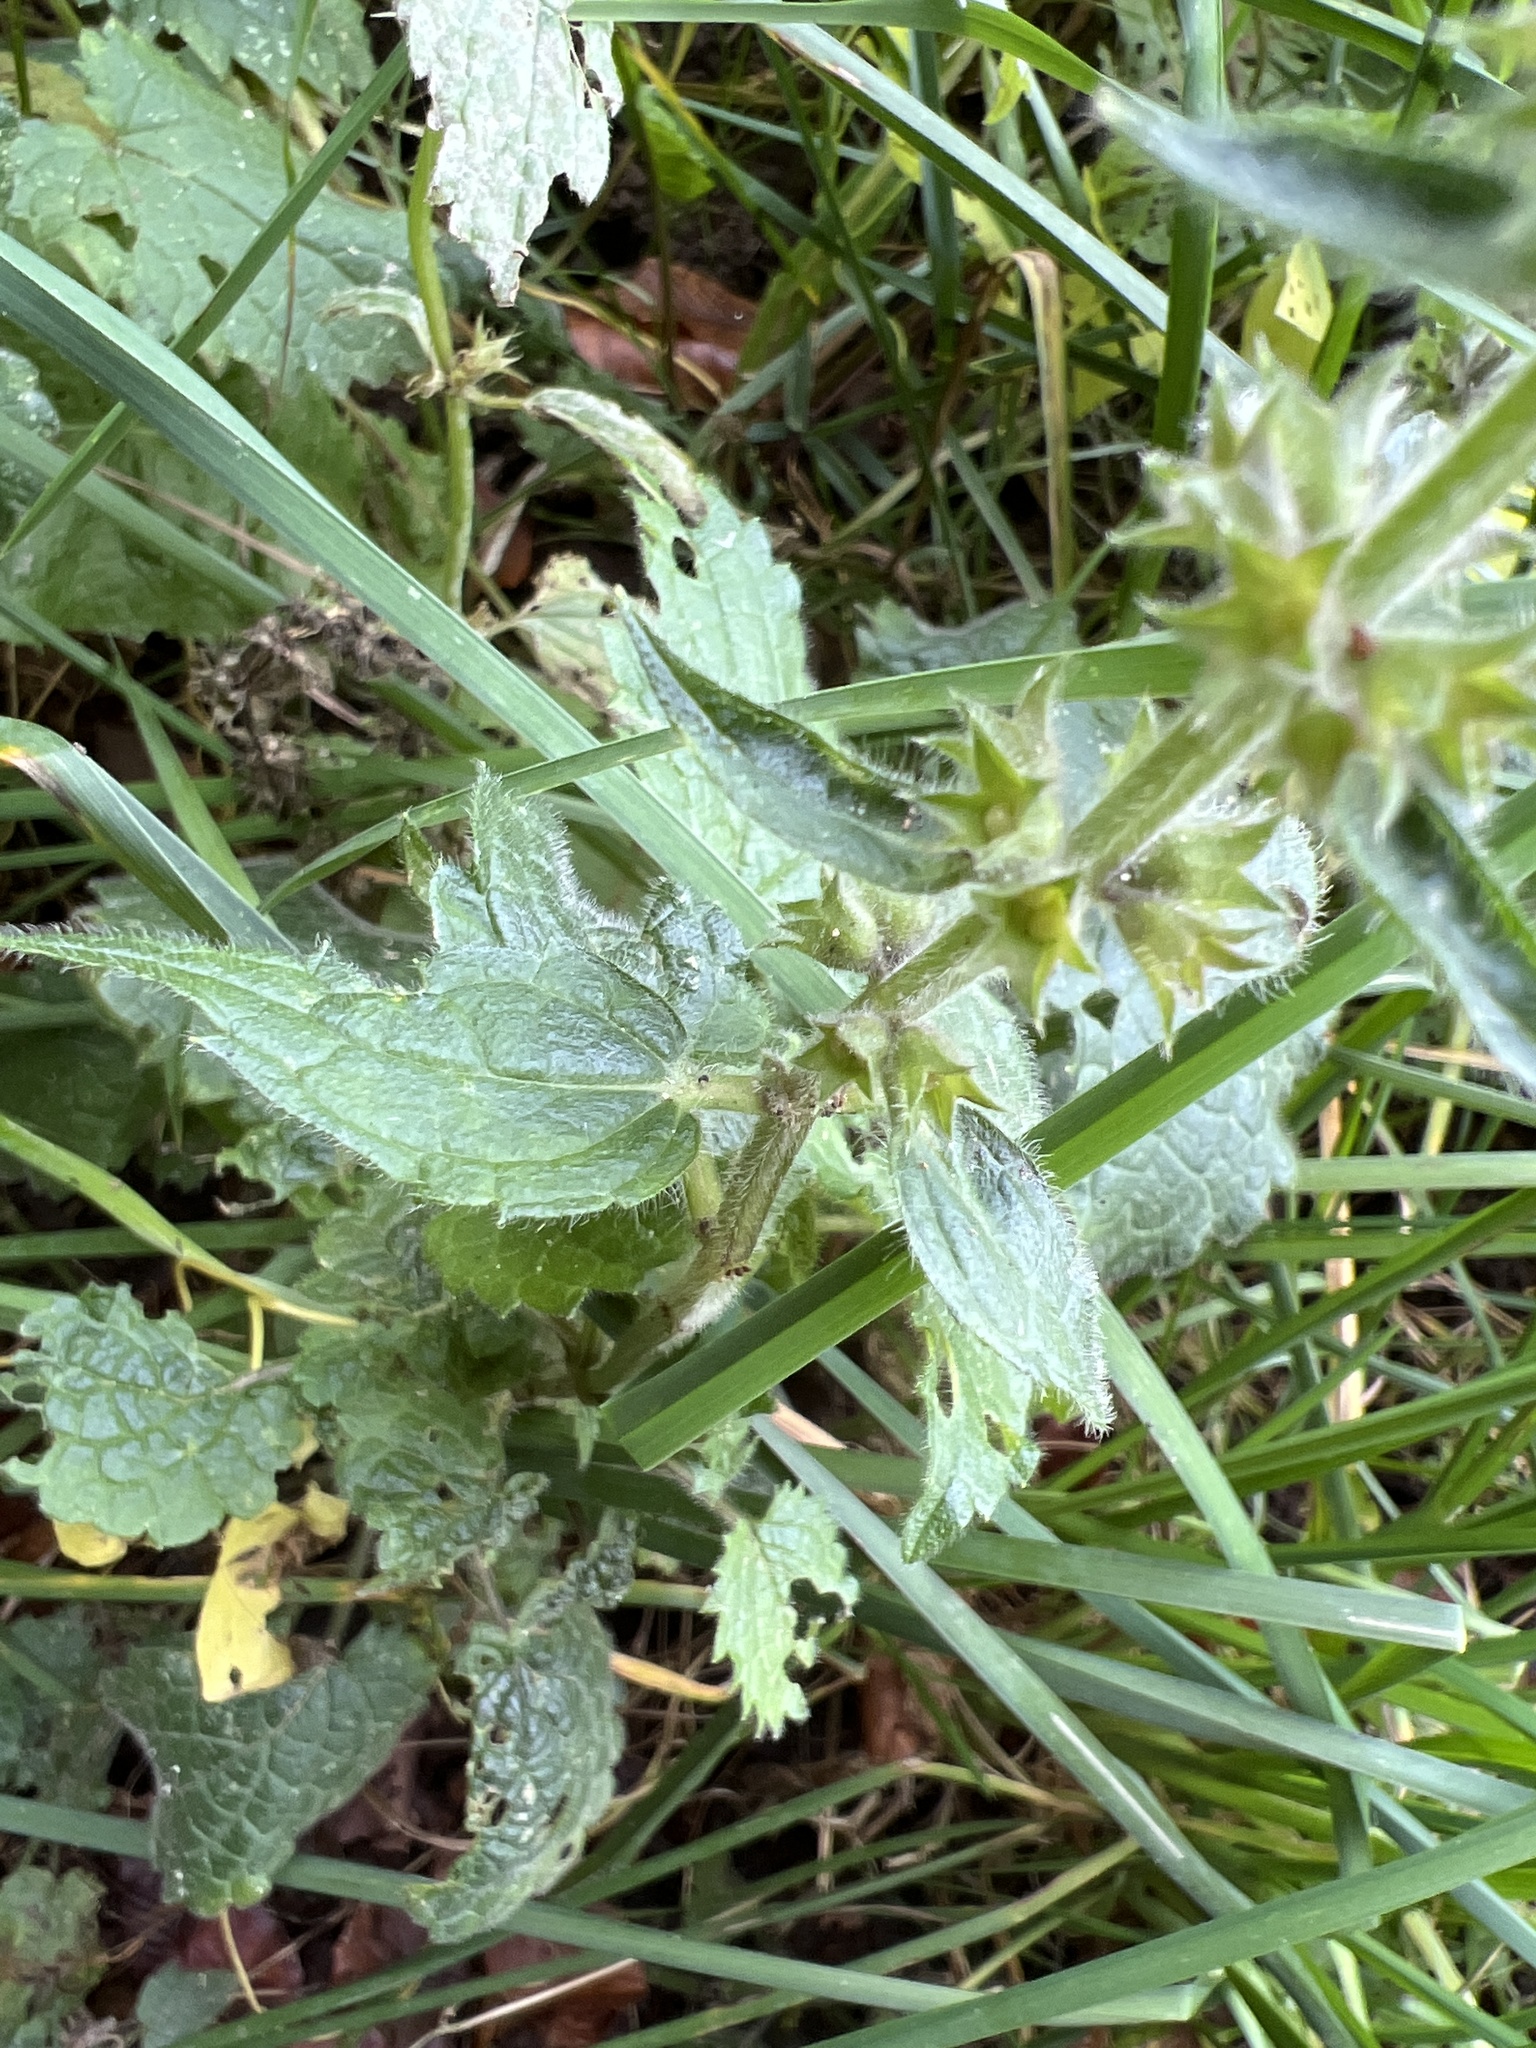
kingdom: Plantae
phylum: Tracheophyta
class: Magnoliopsida
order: Lamiales
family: Lamiaceae
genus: Stachys
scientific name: Stachys sylvatica
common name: Hedge woundwort
